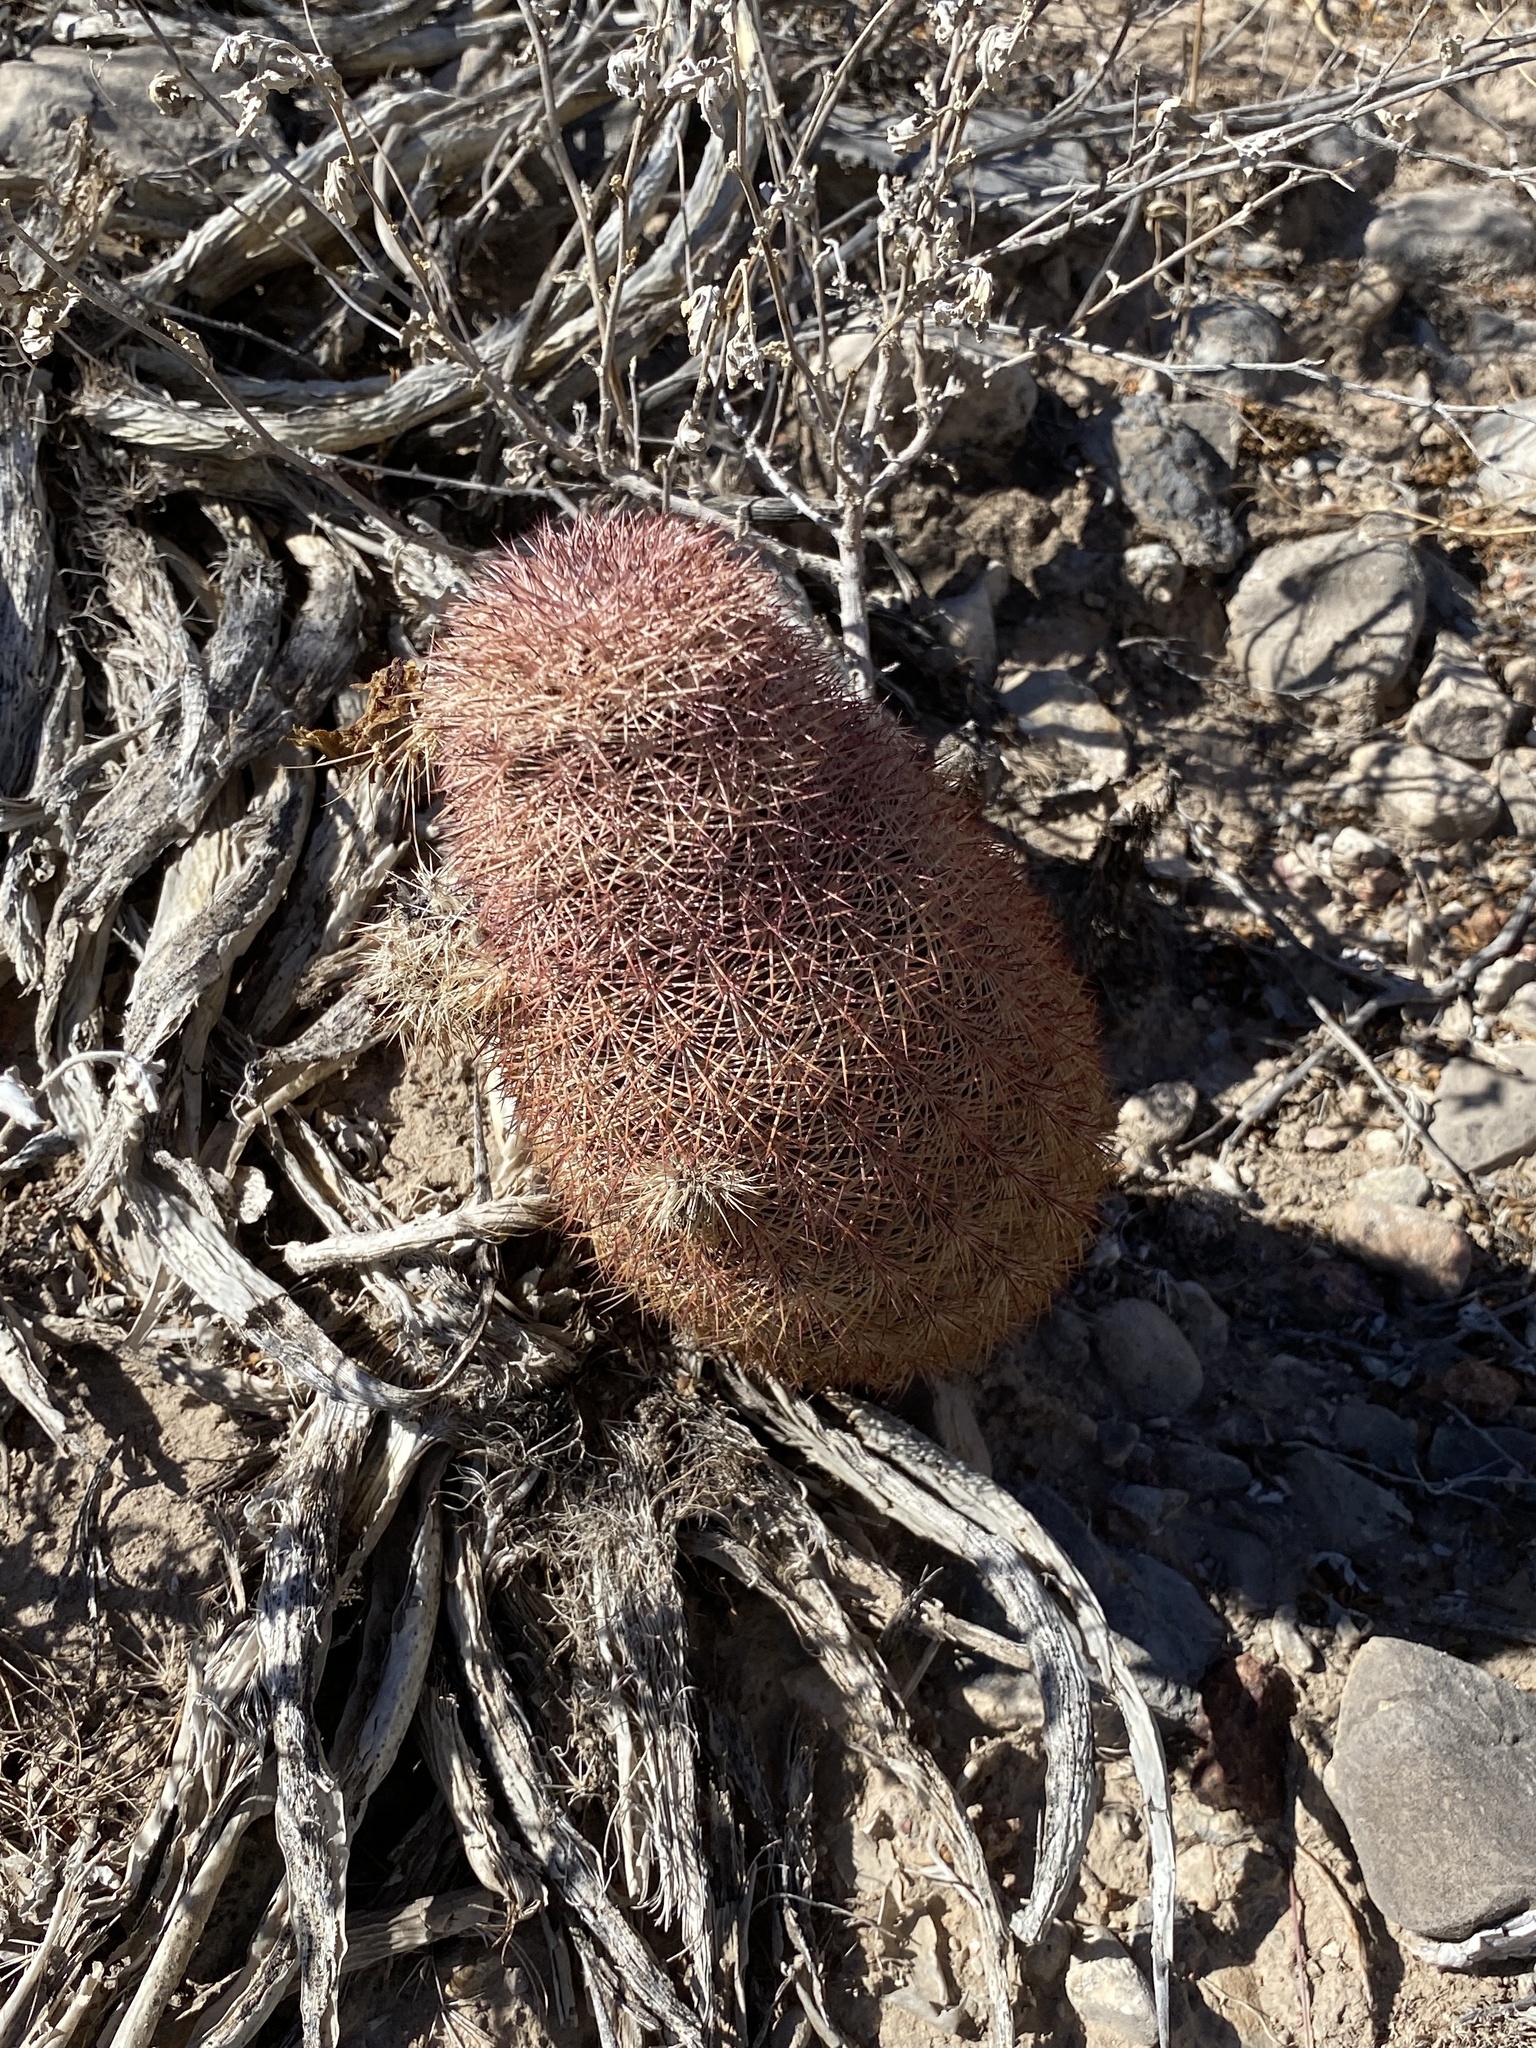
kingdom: Plantae
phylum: Tracheophyta
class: Magnoliopsida
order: Caryophyllales
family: Cactaceae
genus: Echinocereus
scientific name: Echinocereus dasyacanthus
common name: Spiny hedgehog cactus
